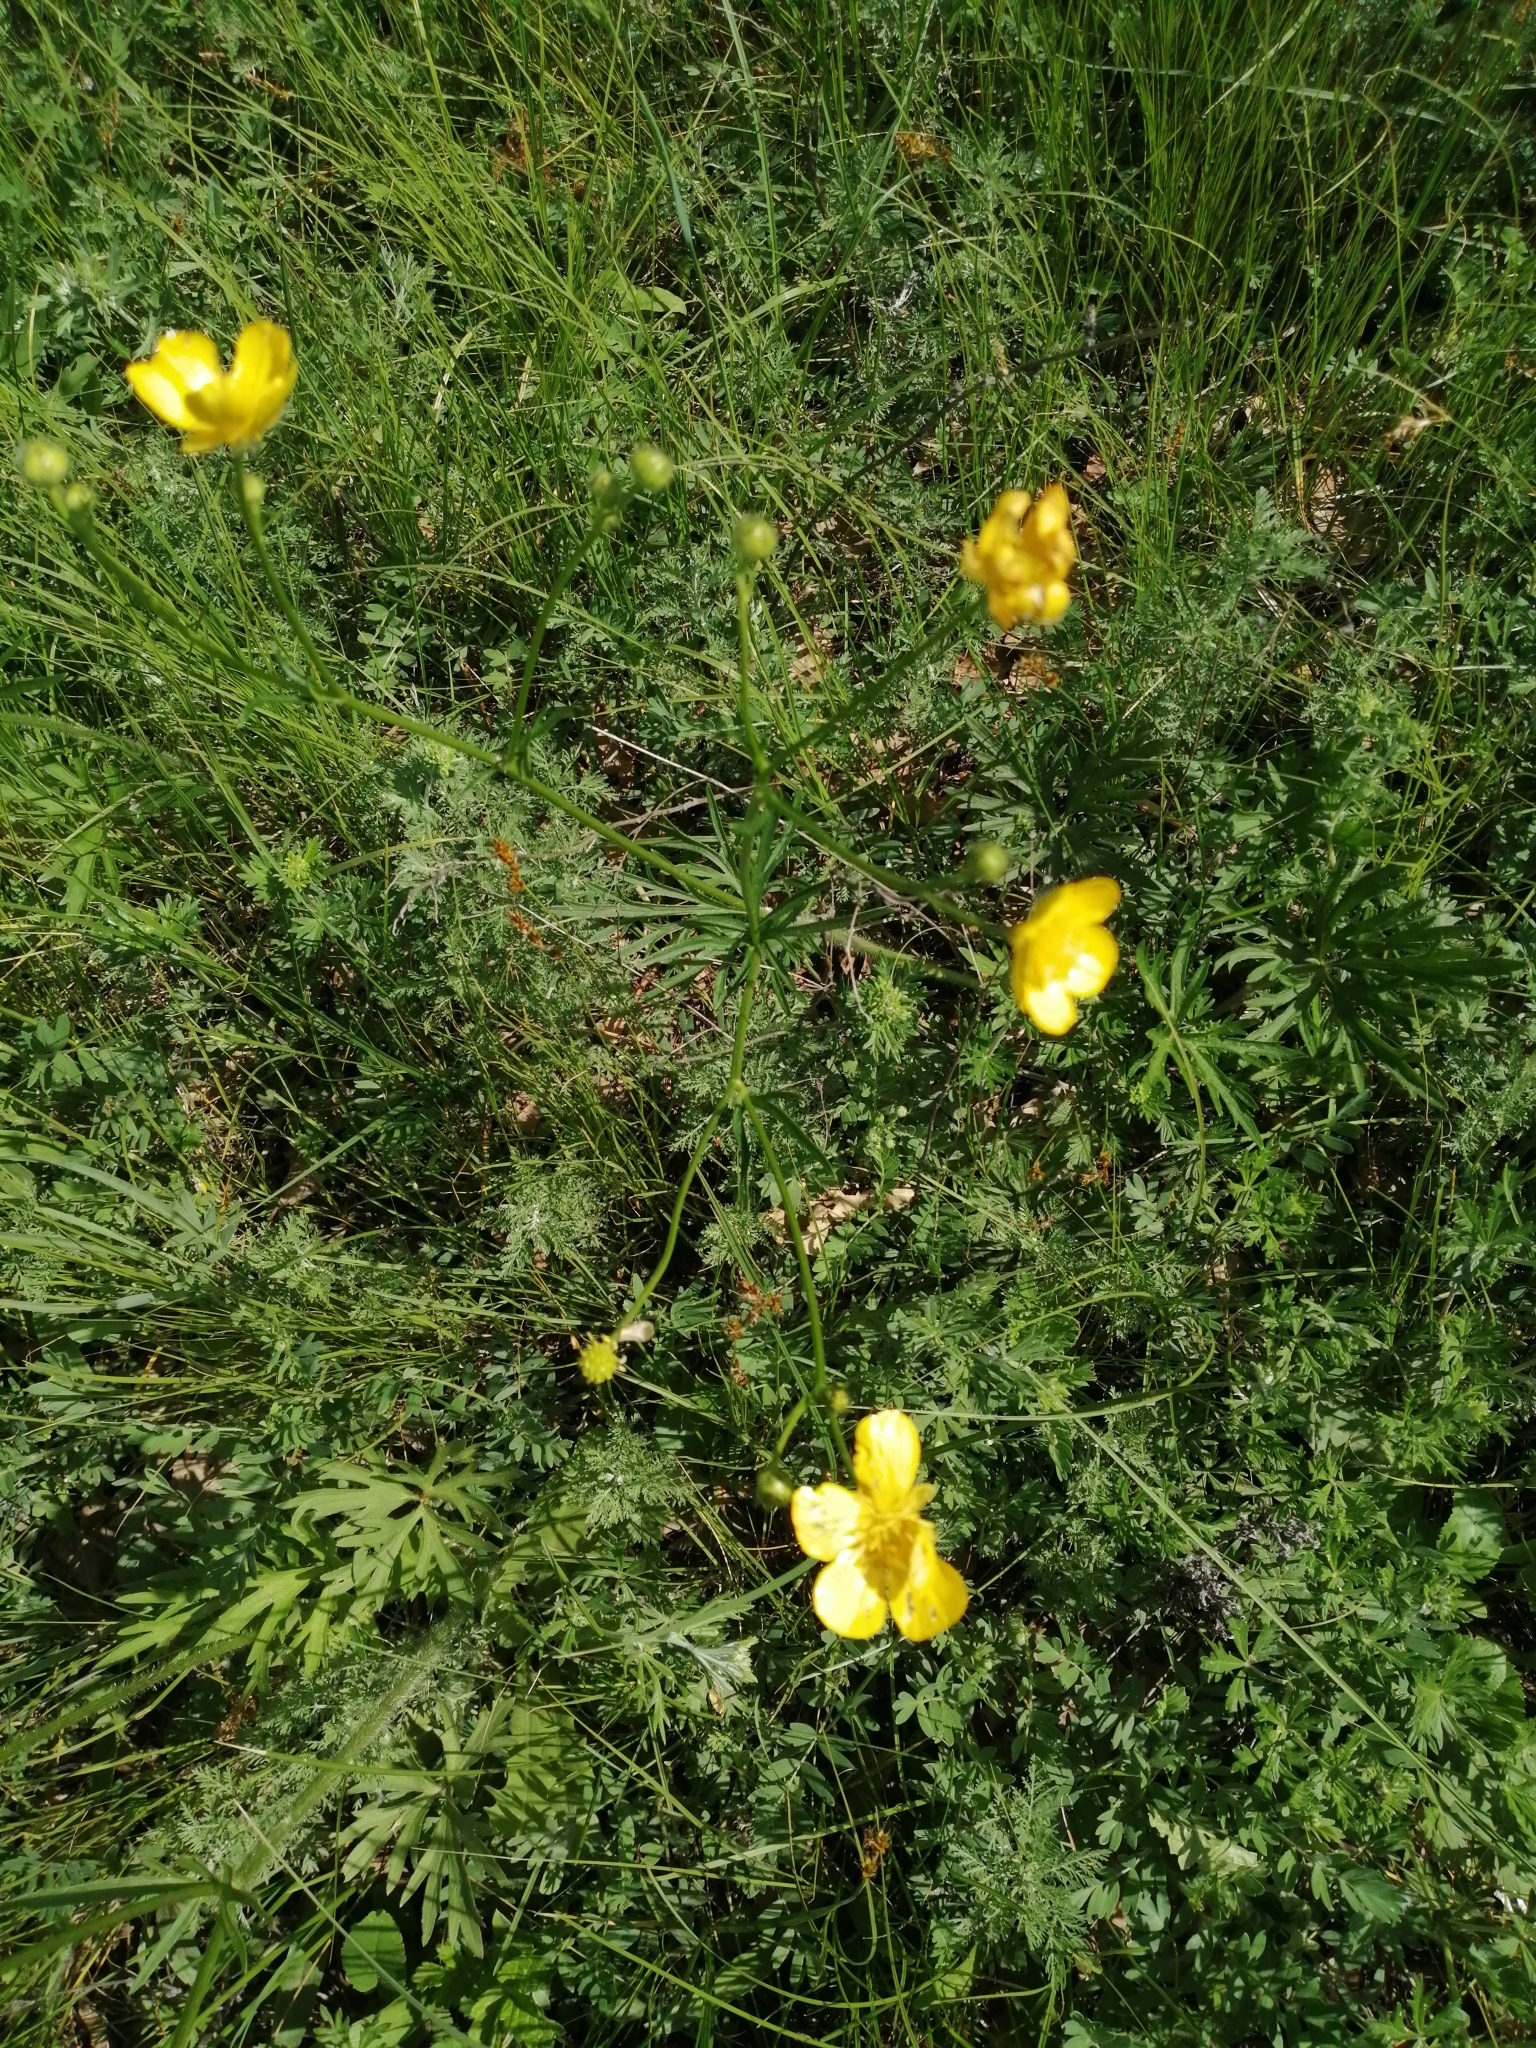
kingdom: Plantae
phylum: Tracheophyta
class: Magnoliopsida
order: Ranunculales
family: Ranunculaceae
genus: Ranunculus
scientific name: Ranunculus polyanthemos
